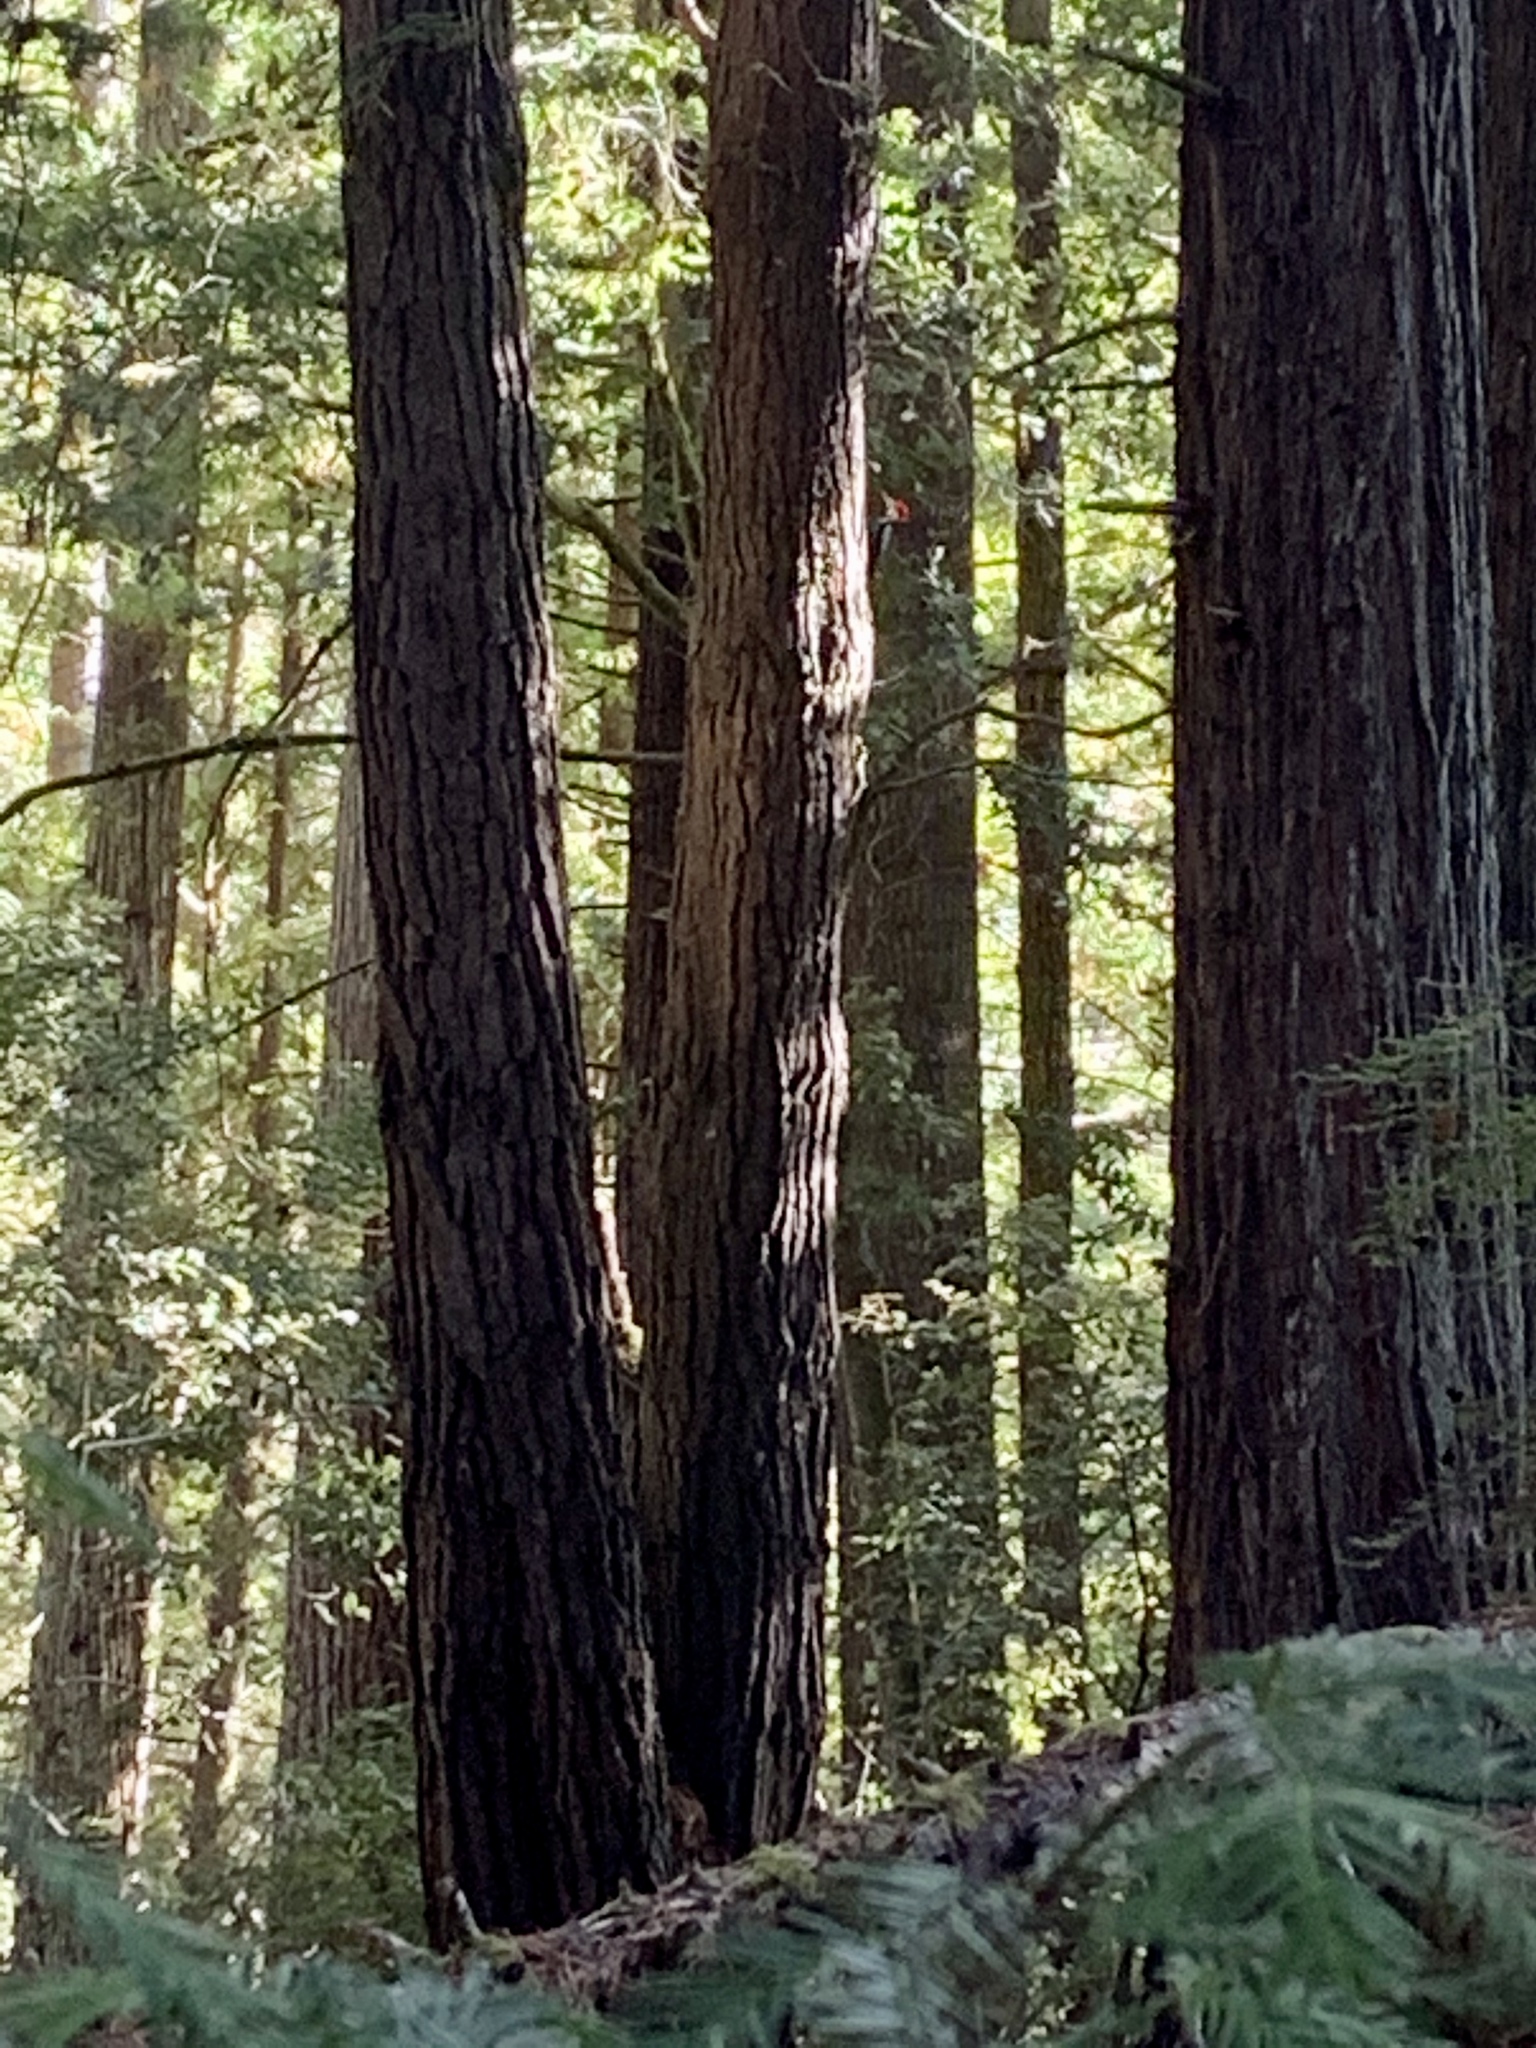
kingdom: Animalia
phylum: Chordata
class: Aves
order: Piciformes
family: Picidae
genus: Dryocopus
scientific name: Dryocopus pileatus
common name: Pileated woodpecker
